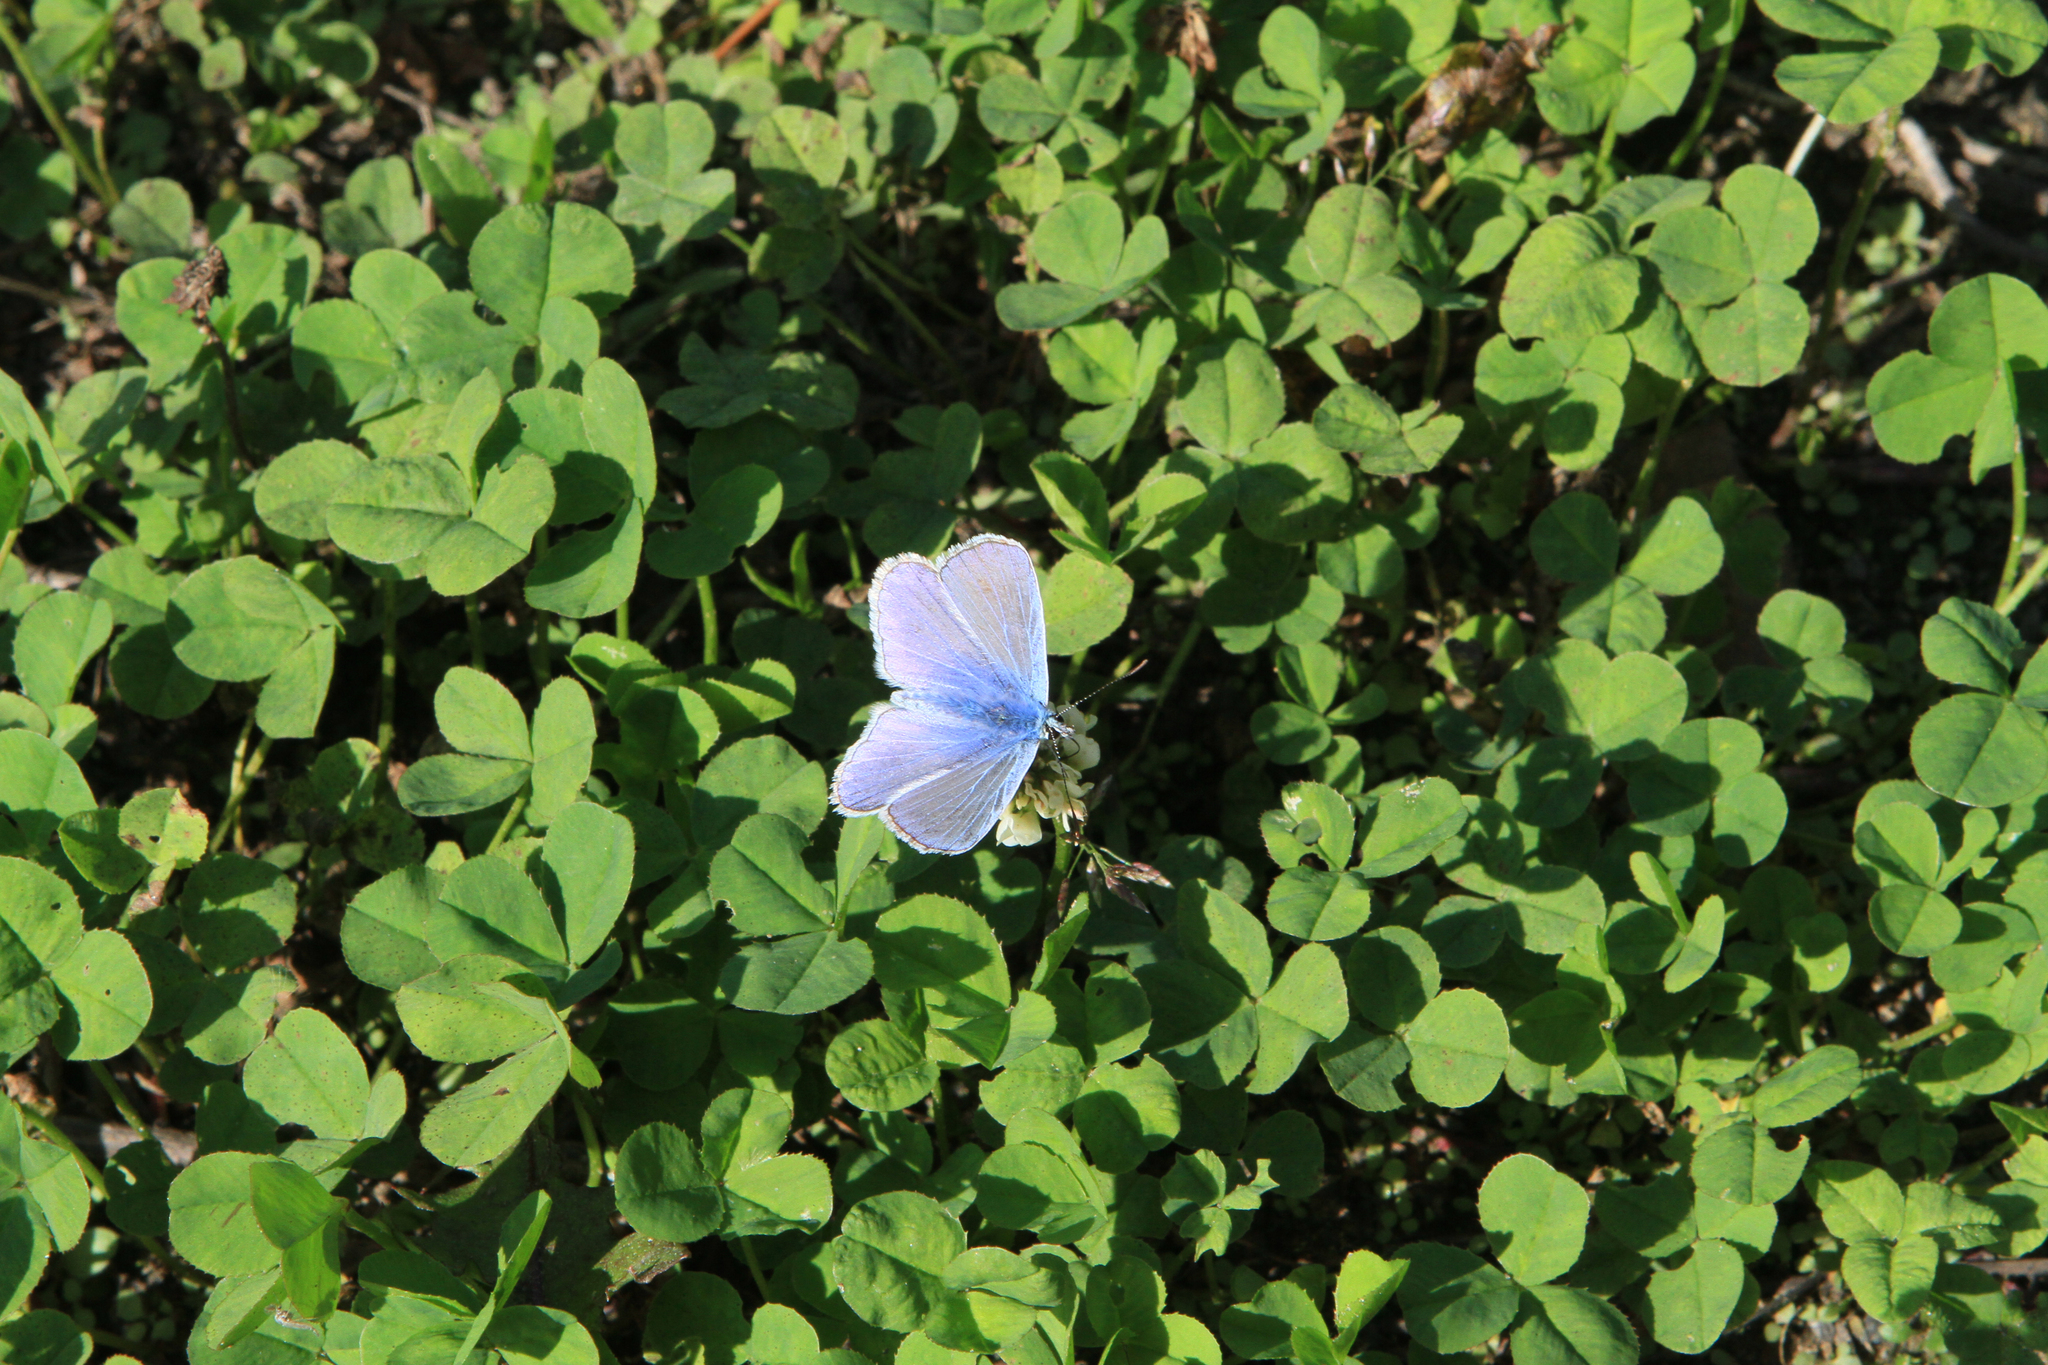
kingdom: Animalia
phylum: Arthropoda
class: Insecta
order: Lepidoptera
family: Lycaenidae
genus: Polyommatus
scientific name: Polyommatus icarus
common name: Common blue
